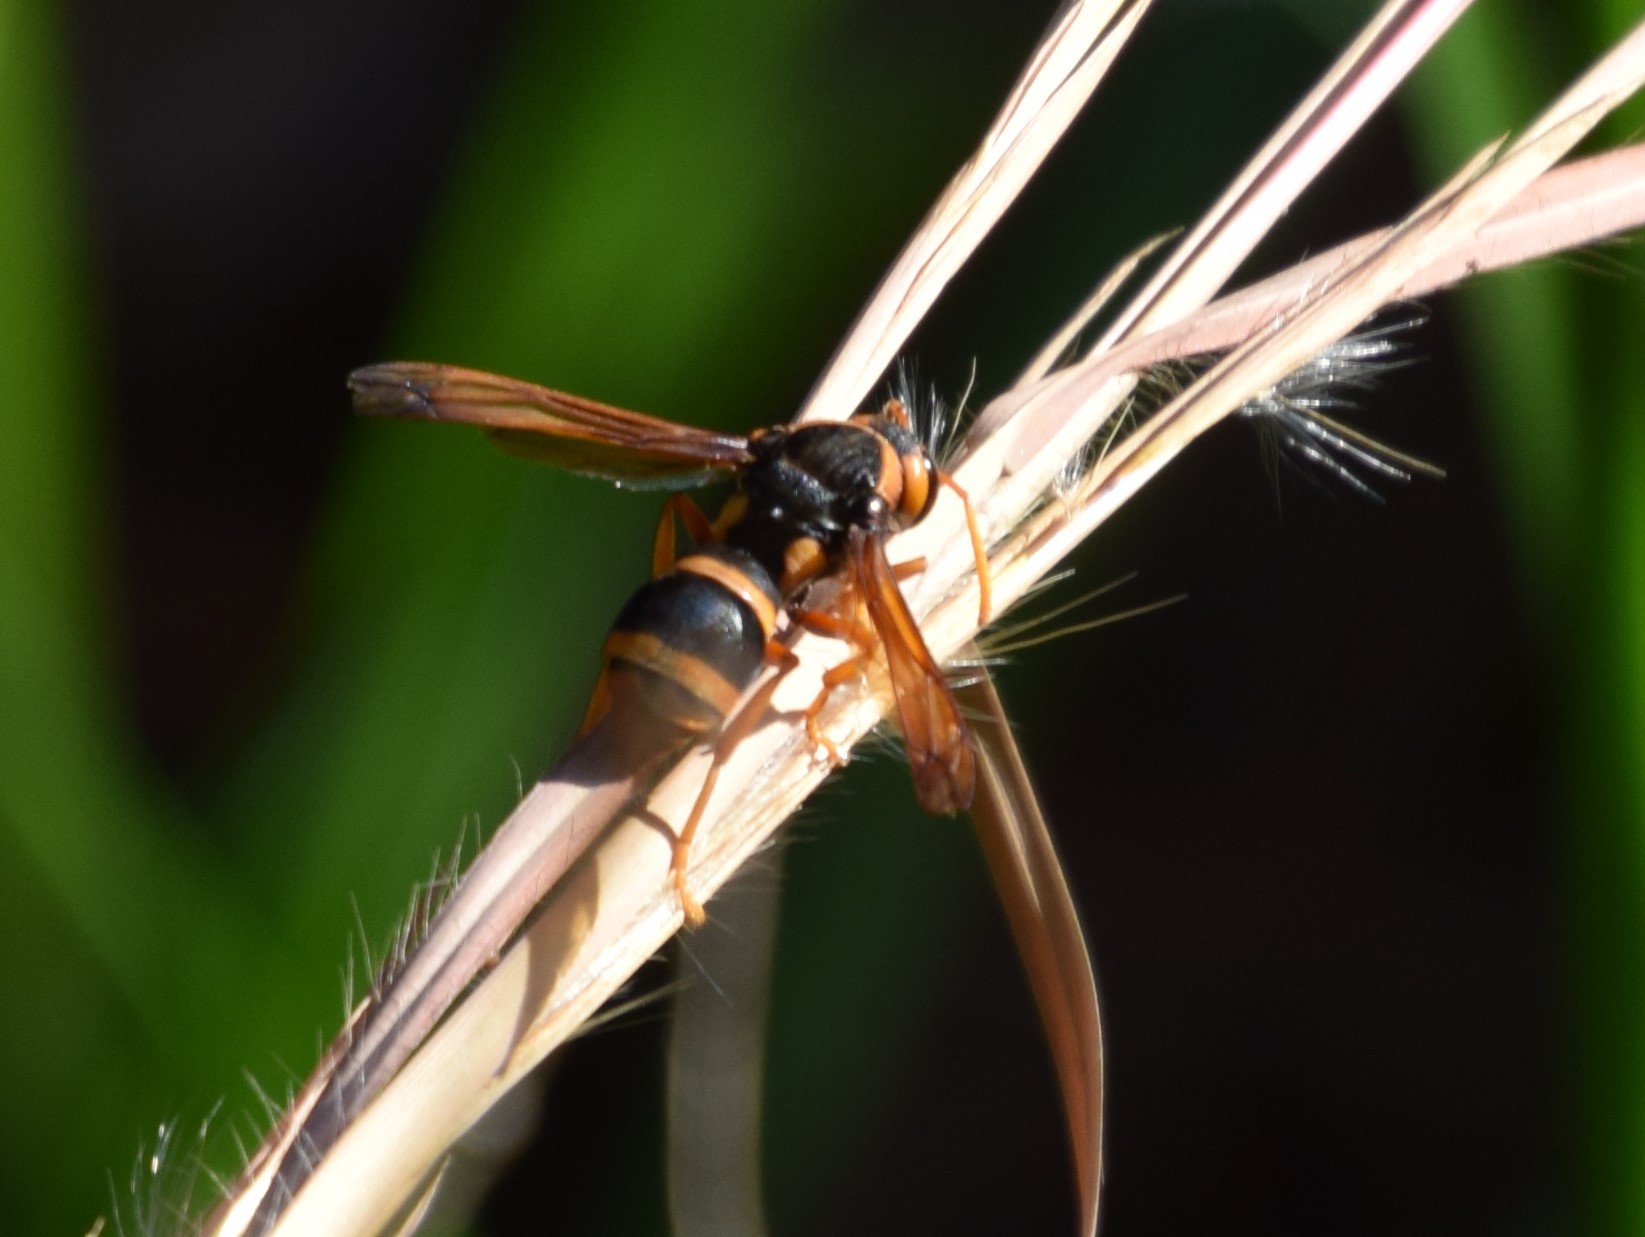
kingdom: Animalia
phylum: Arthropoda
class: Insecta
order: Hymenoptera
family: Eumenidae
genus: Abispa
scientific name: Abispa splendida
